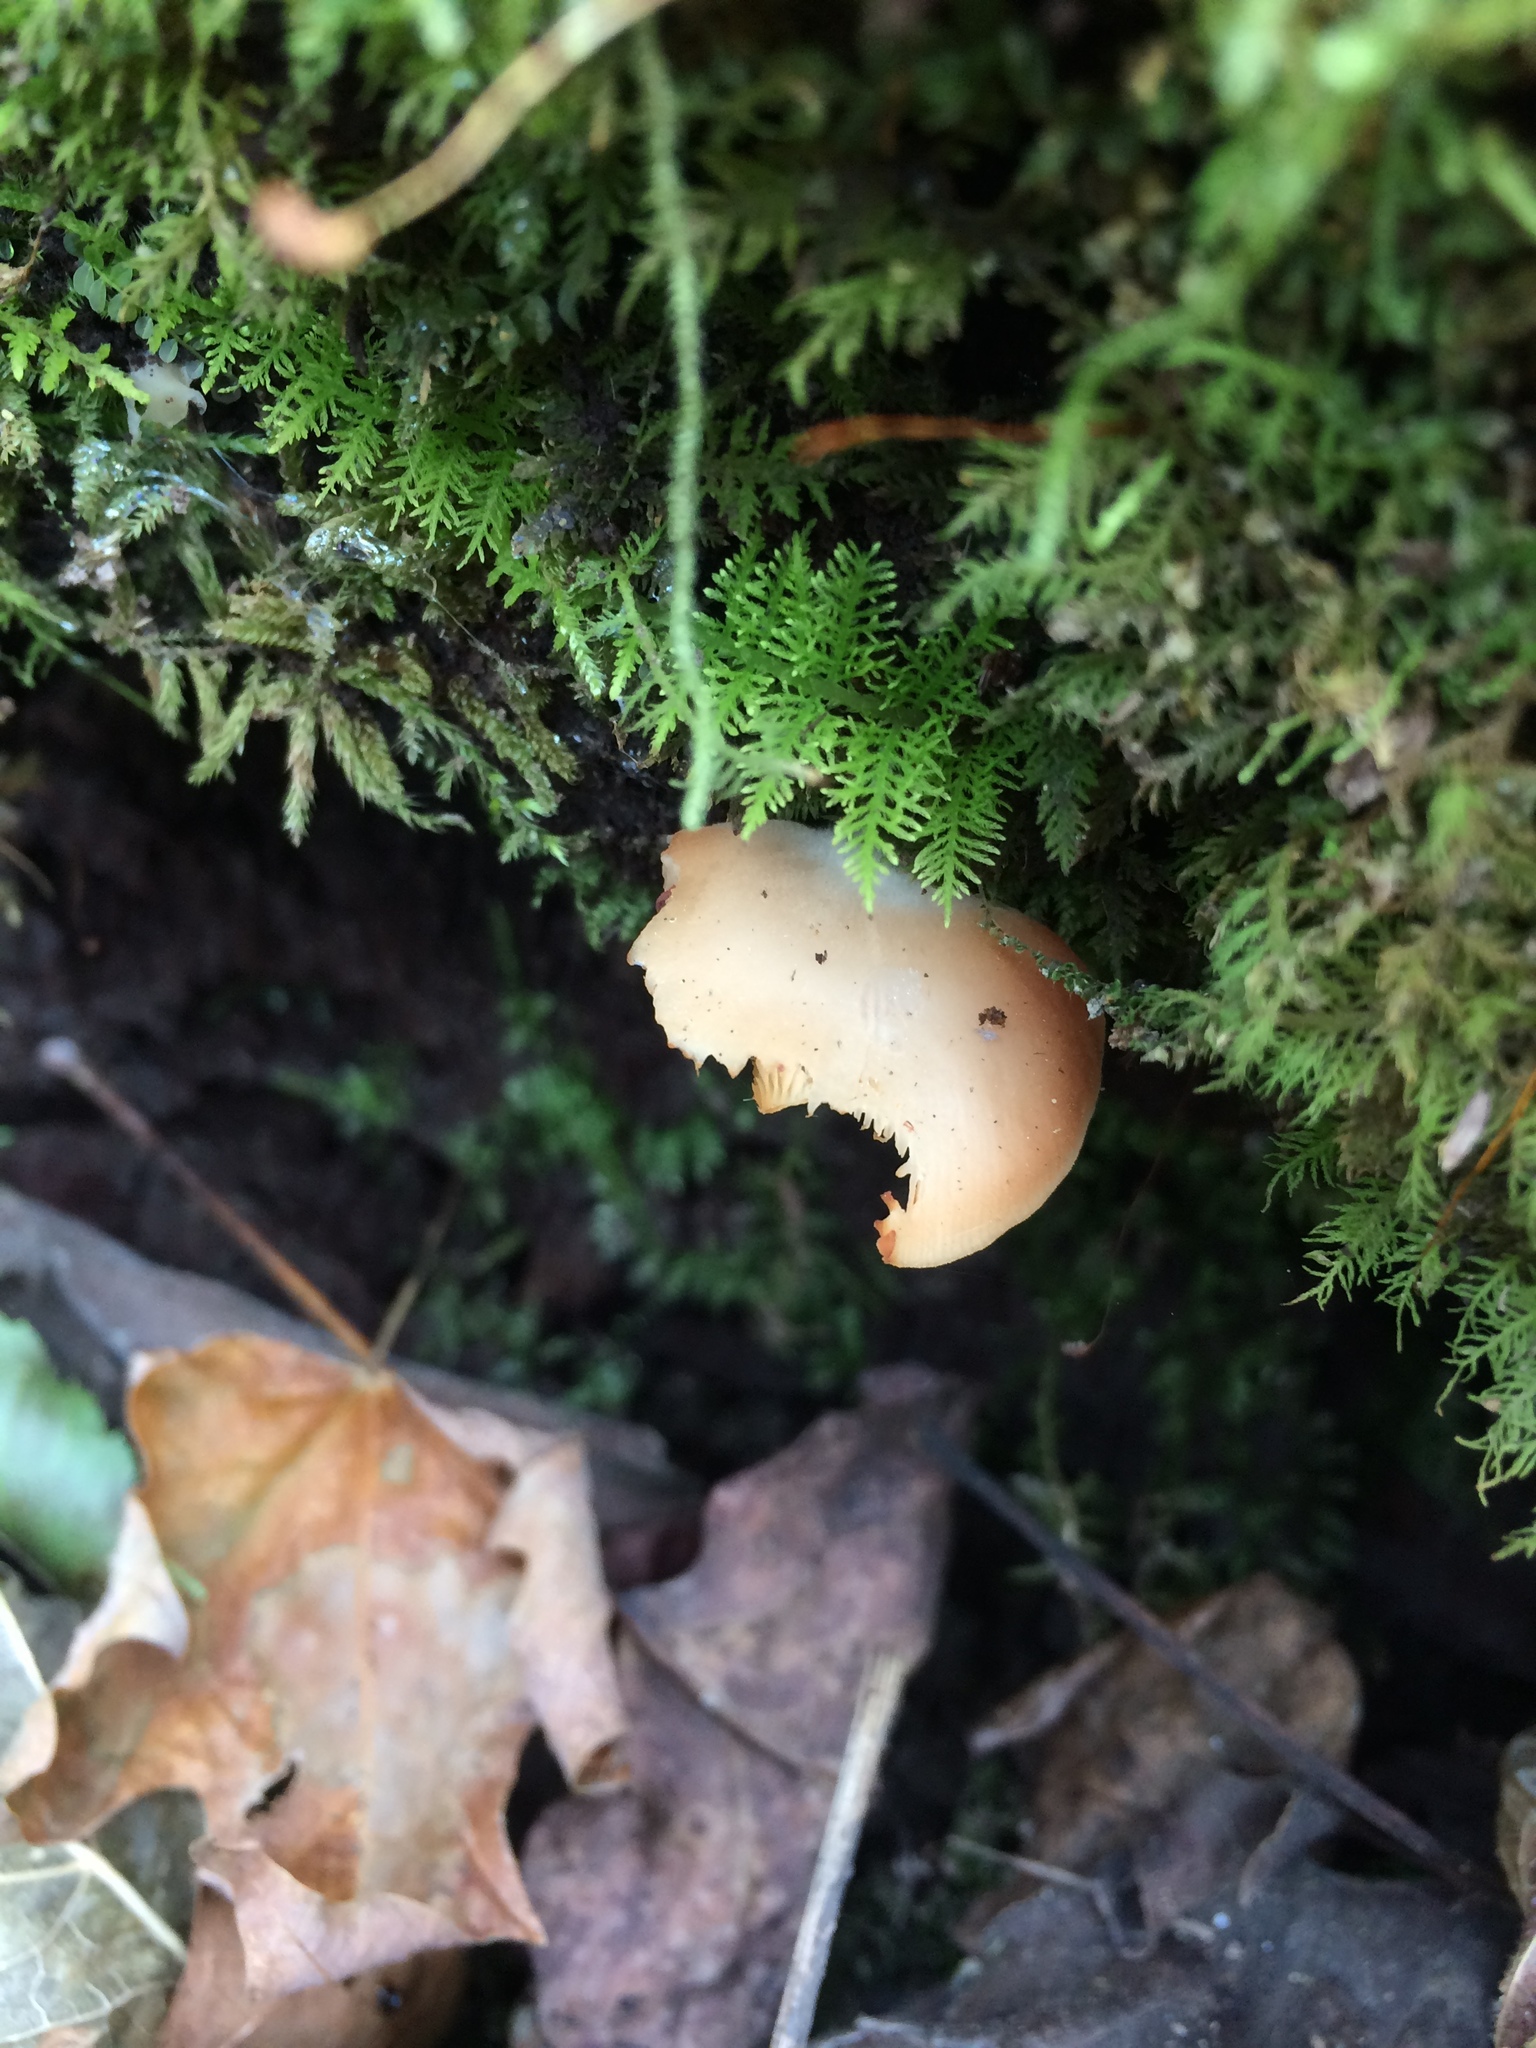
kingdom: Fungi
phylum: Basidiomycota
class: Agaricomycetes
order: Agaricales
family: Crepidotaceae
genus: Crepidotus
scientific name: Crepidotus applanatus
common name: Flat crep
